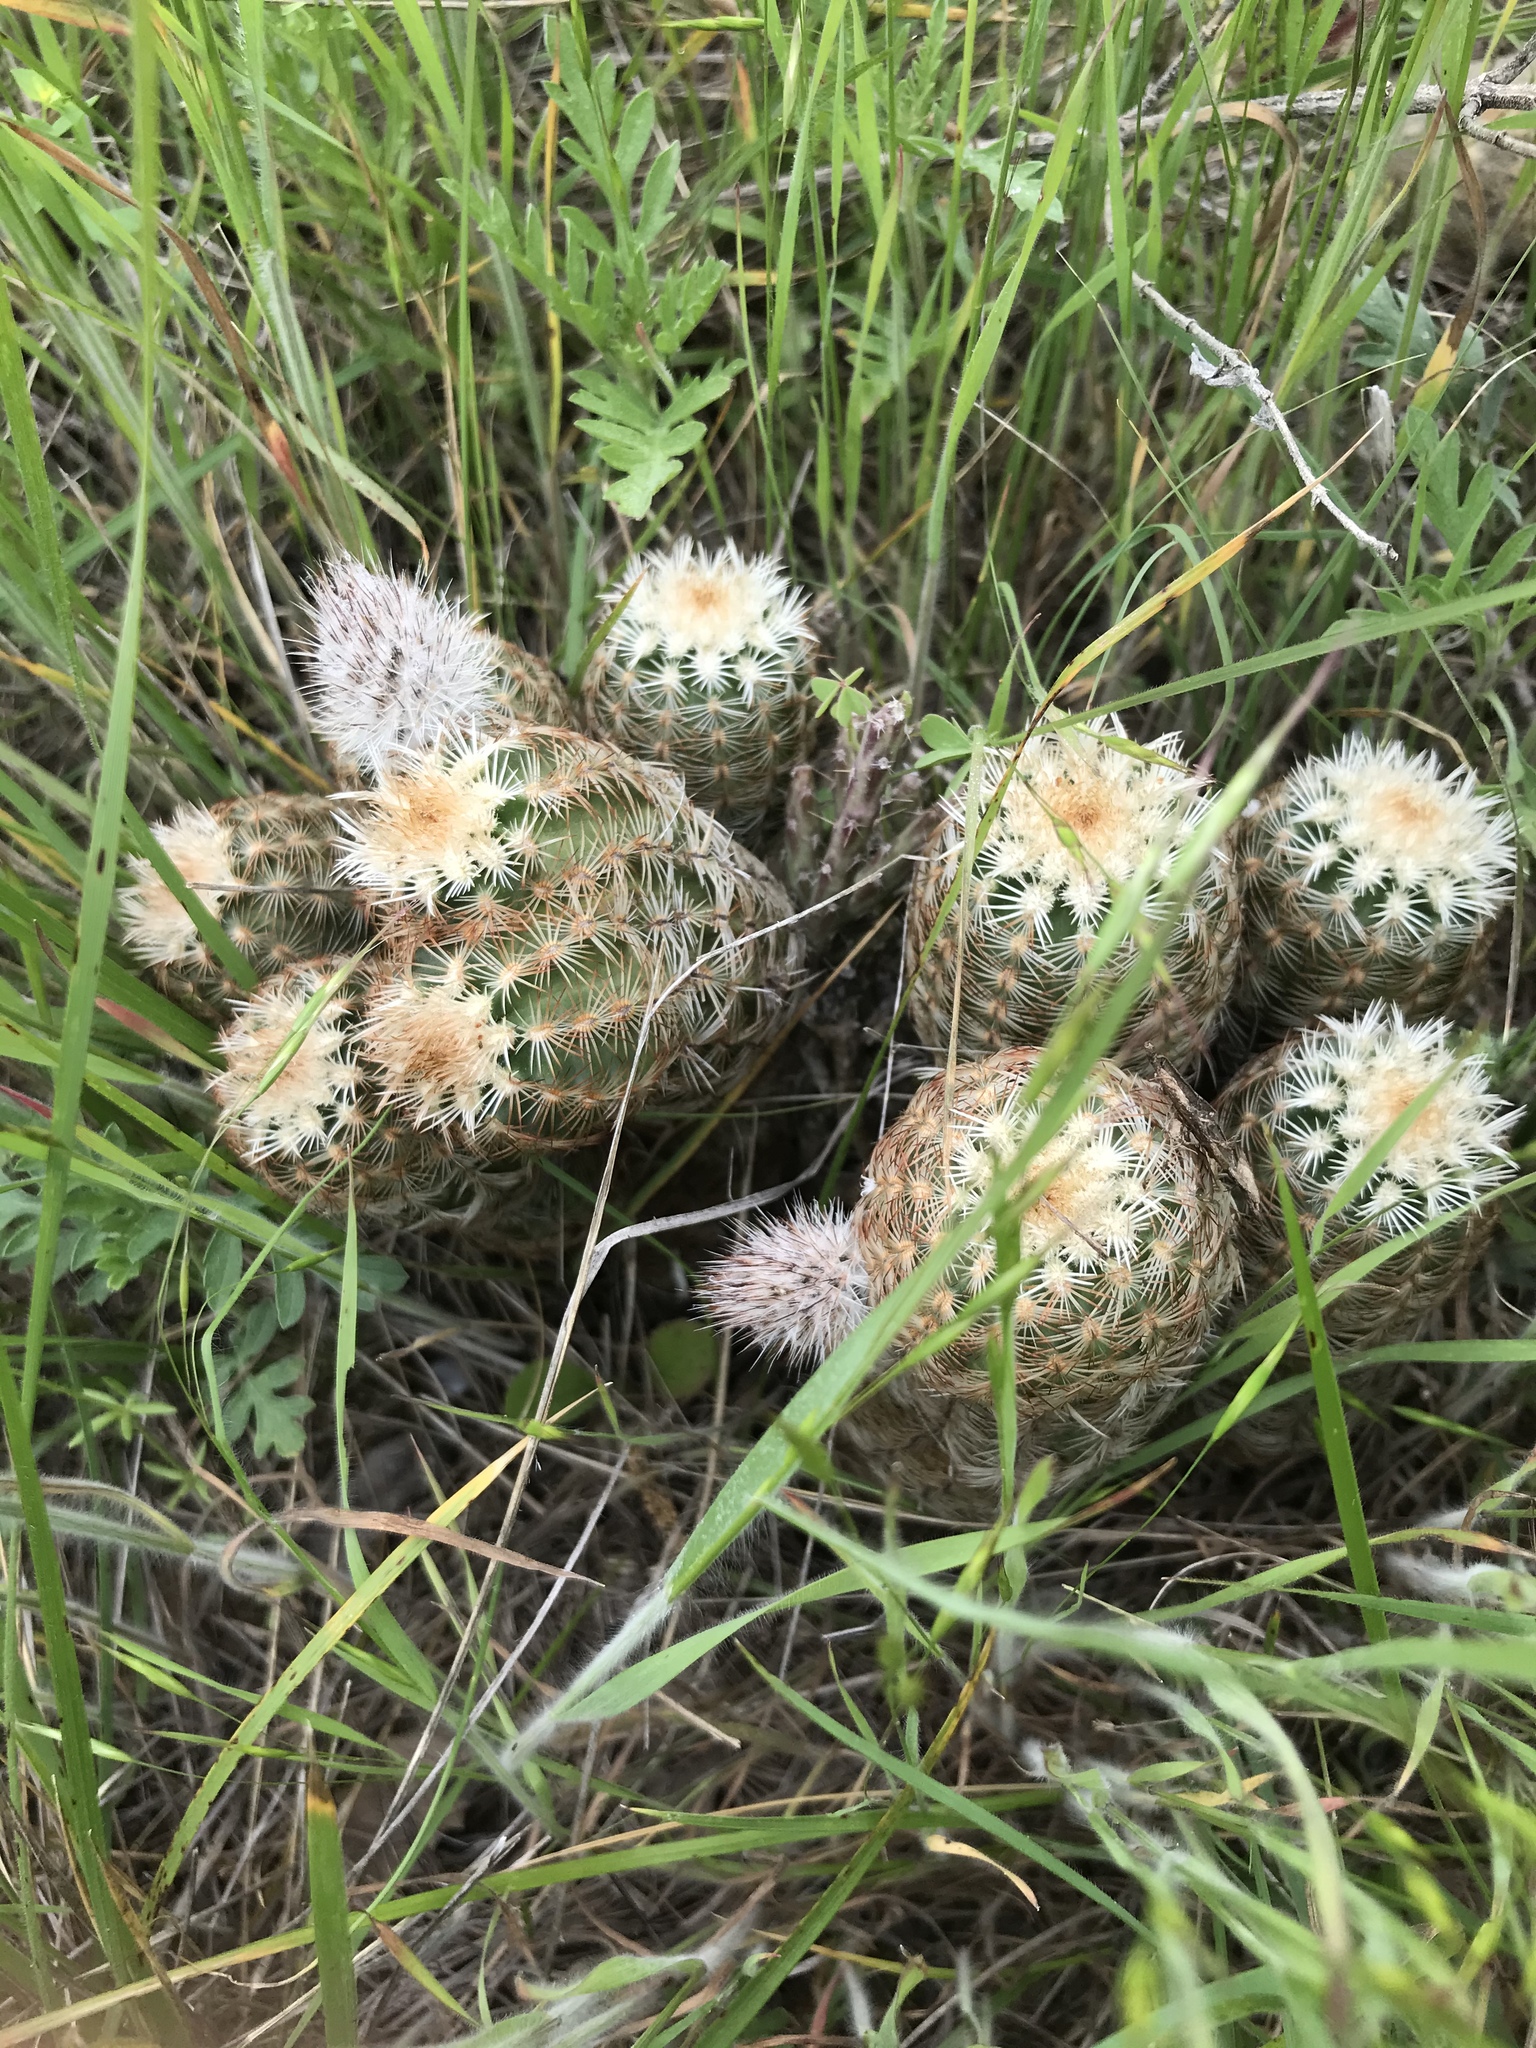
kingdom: Plantae
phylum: Tracheophyta
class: Magnoliopsida
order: Caryophyllales
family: Cactaceae
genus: Echinocereus
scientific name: Echinocereus reichenbachii
